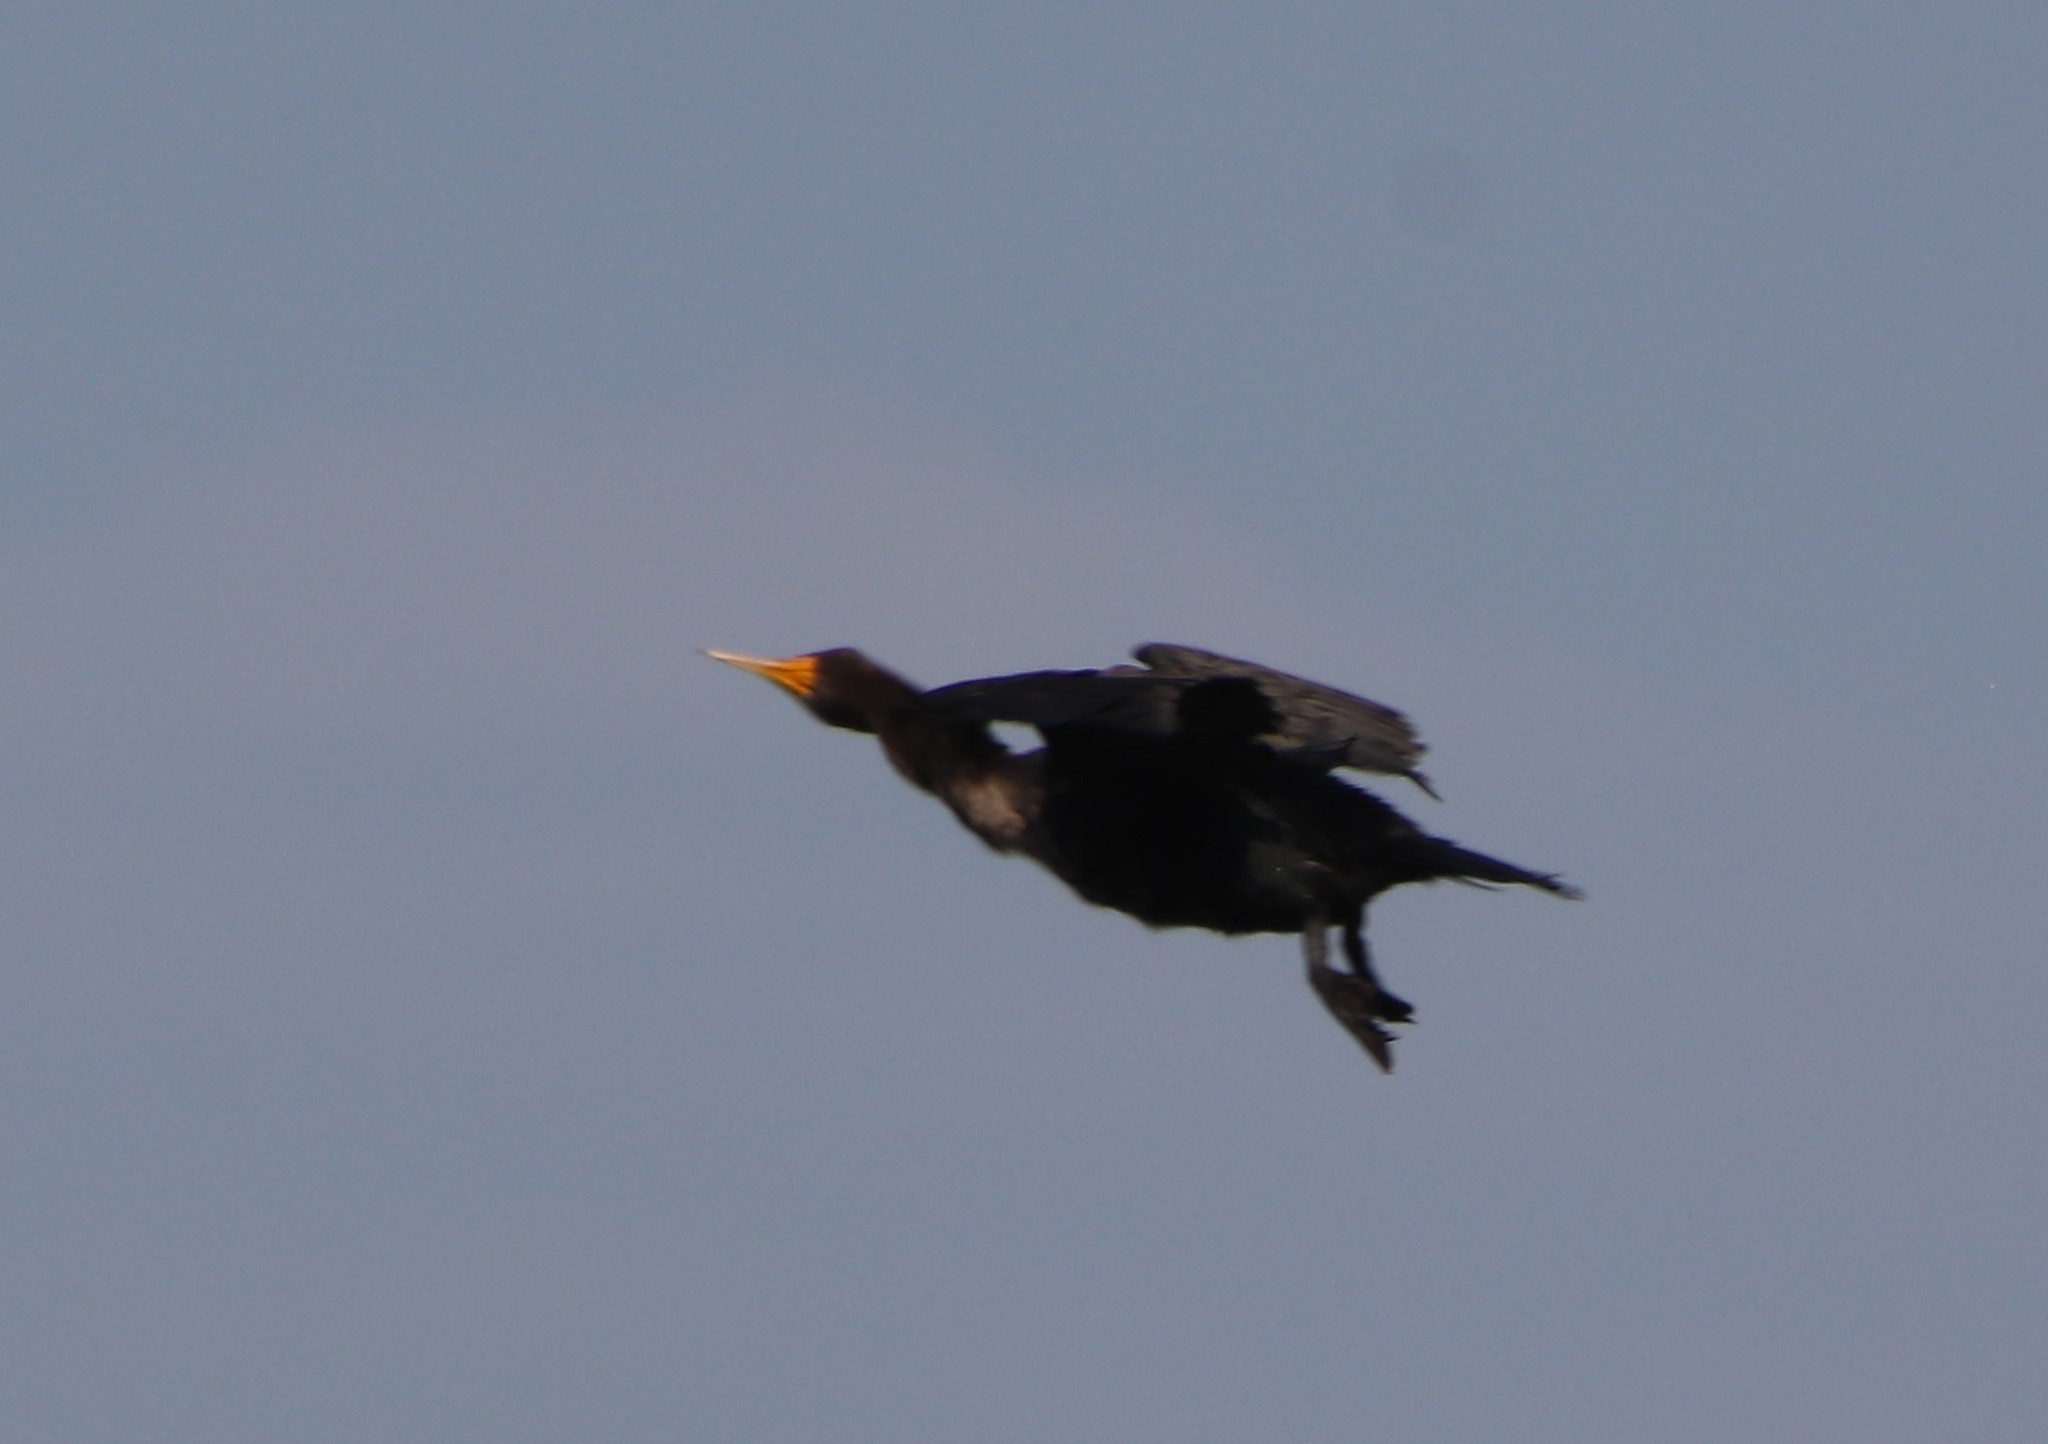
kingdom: Animalia
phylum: Chordata
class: Aves
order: Suliformes
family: Phalacrocoracidae
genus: Phalacrocorax
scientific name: Phalacrocorax auritus
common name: Double-crested cormorant
